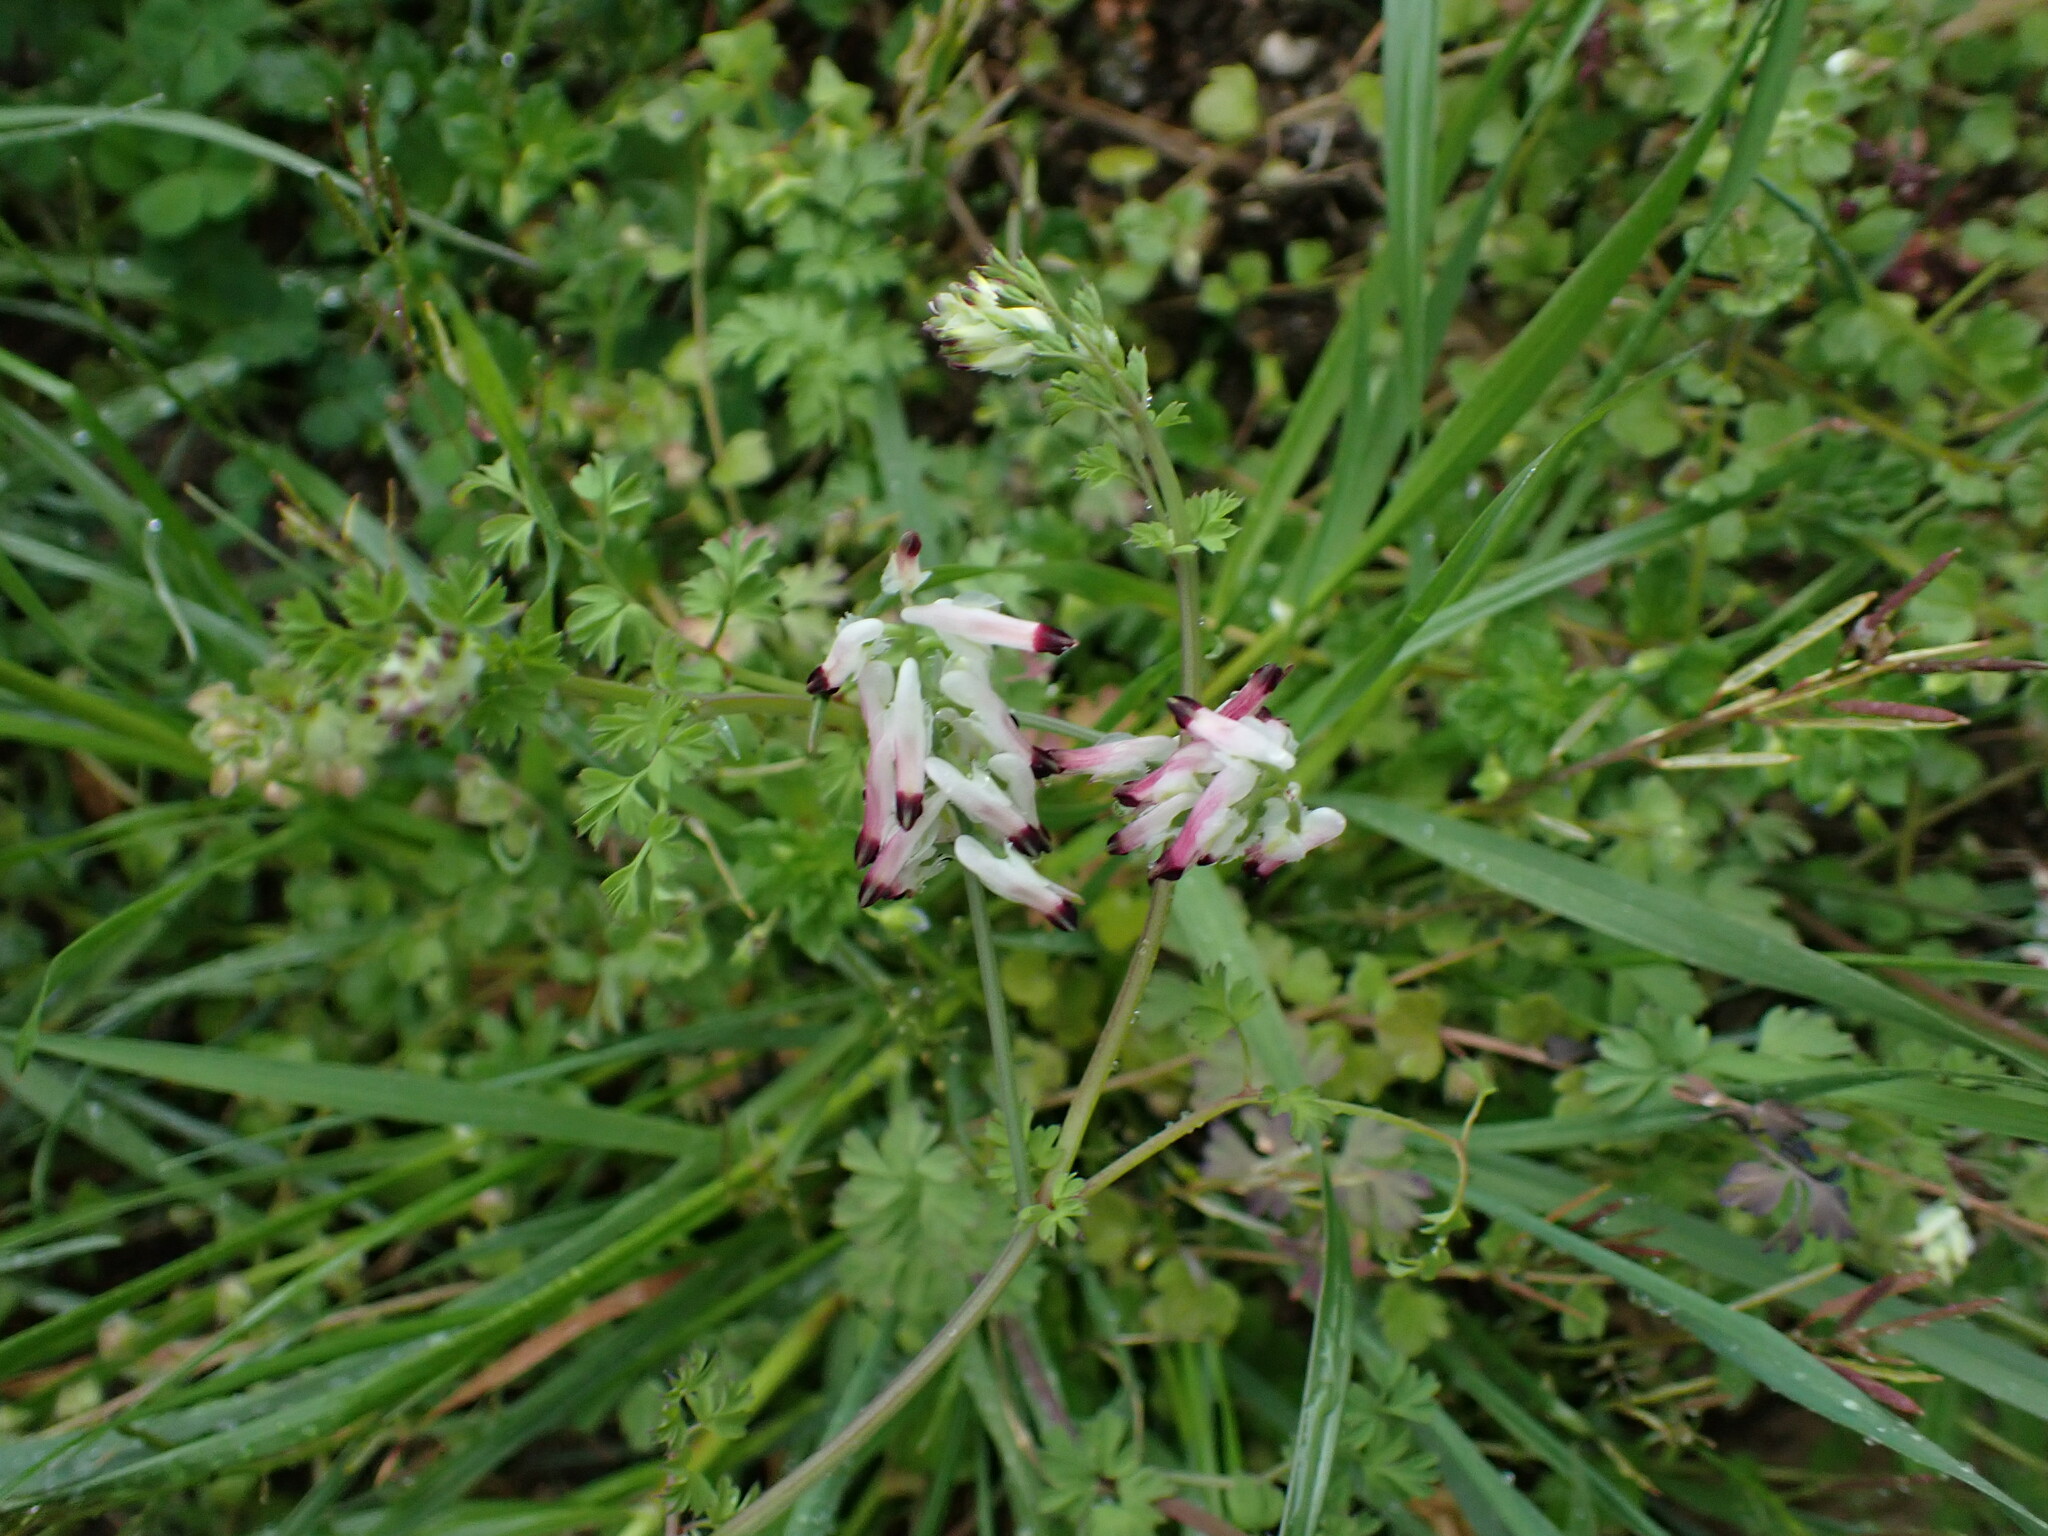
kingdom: Plantae
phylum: Tracheophyta
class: Magnoliopsida
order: Ranunculales
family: Papaveraceae
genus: Fumaria
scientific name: Fumaria capreolata
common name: White ramping-fumitory
